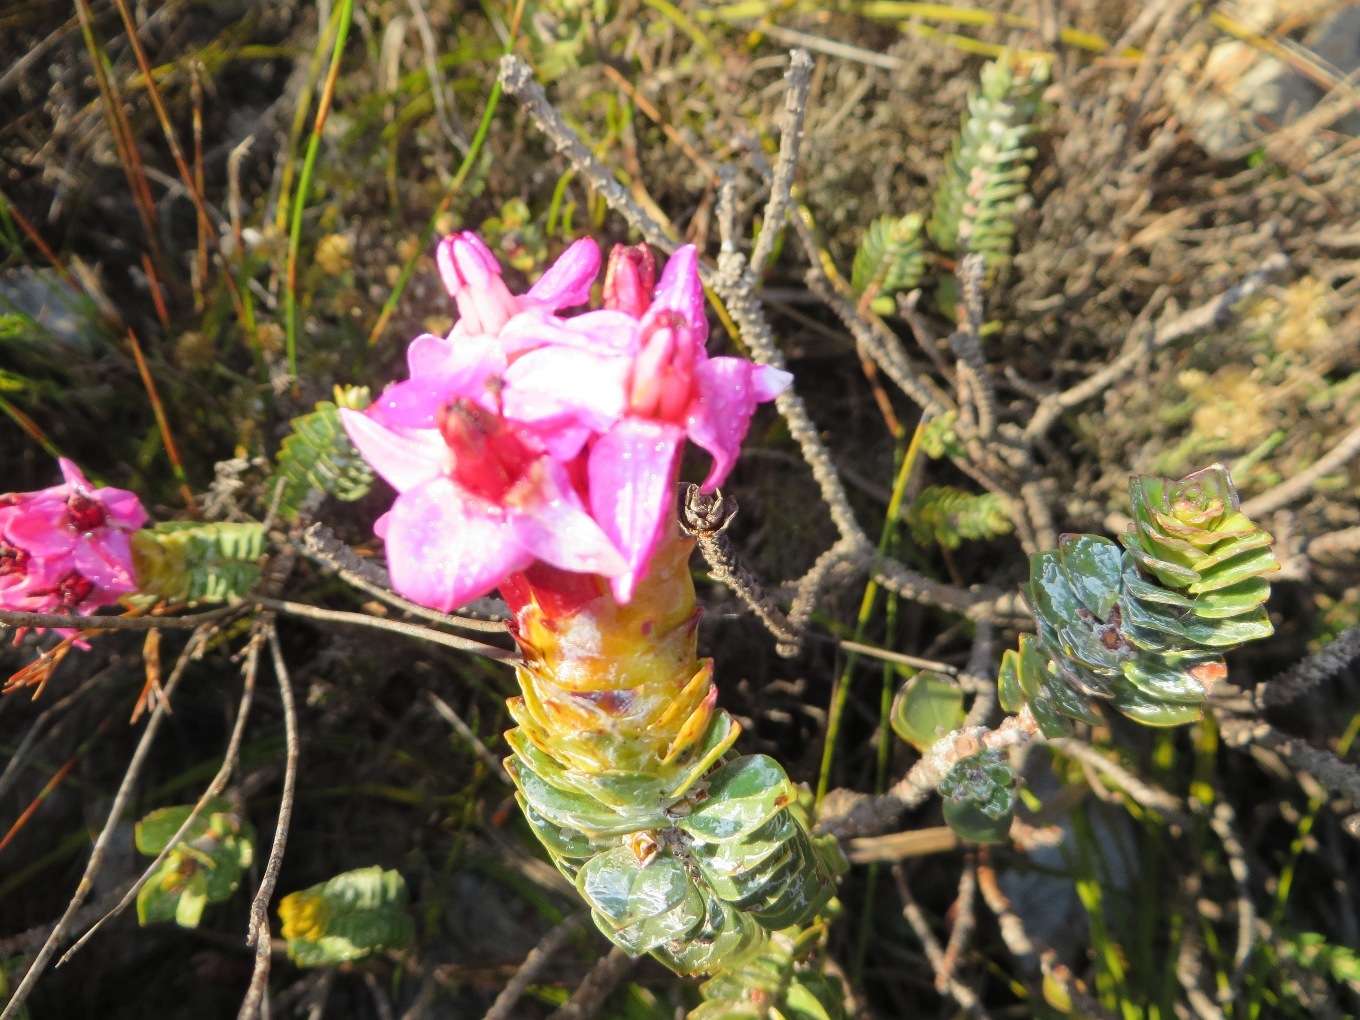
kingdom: Plantae
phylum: Tracheophyta
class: Magnoliopsida
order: Myrtales
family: Penaeaceae
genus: Saltera
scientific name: Saltera sarcocolla
